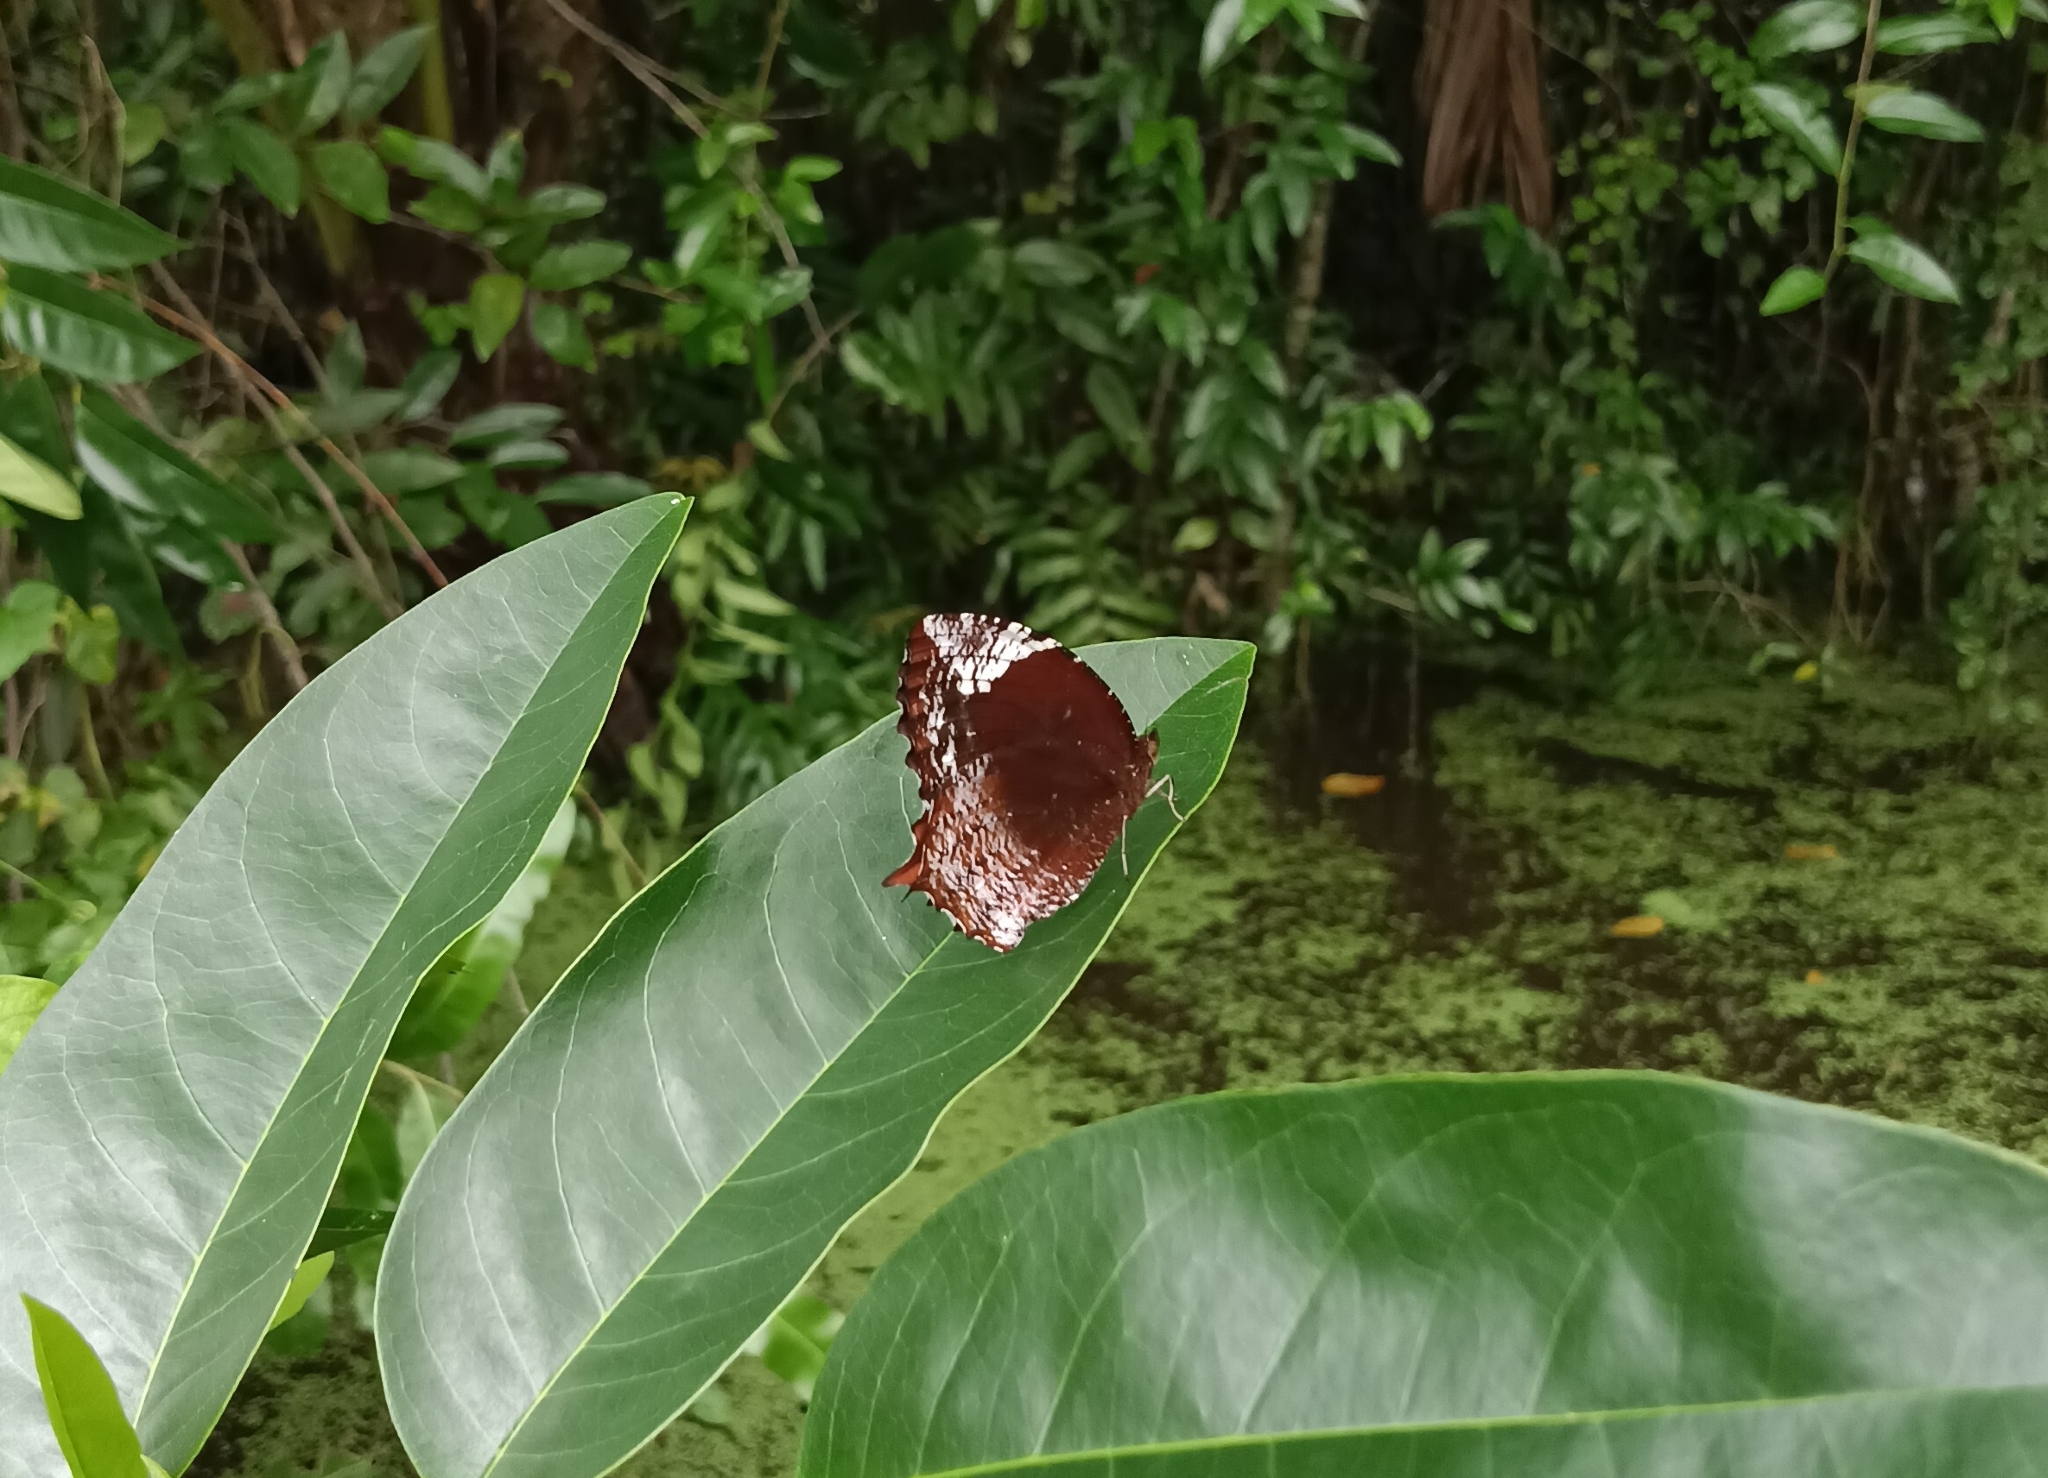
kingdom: Animalia
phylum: Arthropoda
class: Insecta
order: Lepidoptera
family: Nymphalidae
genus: Elymnias
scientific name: Elymnias caudata
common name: Tailed palmfly
